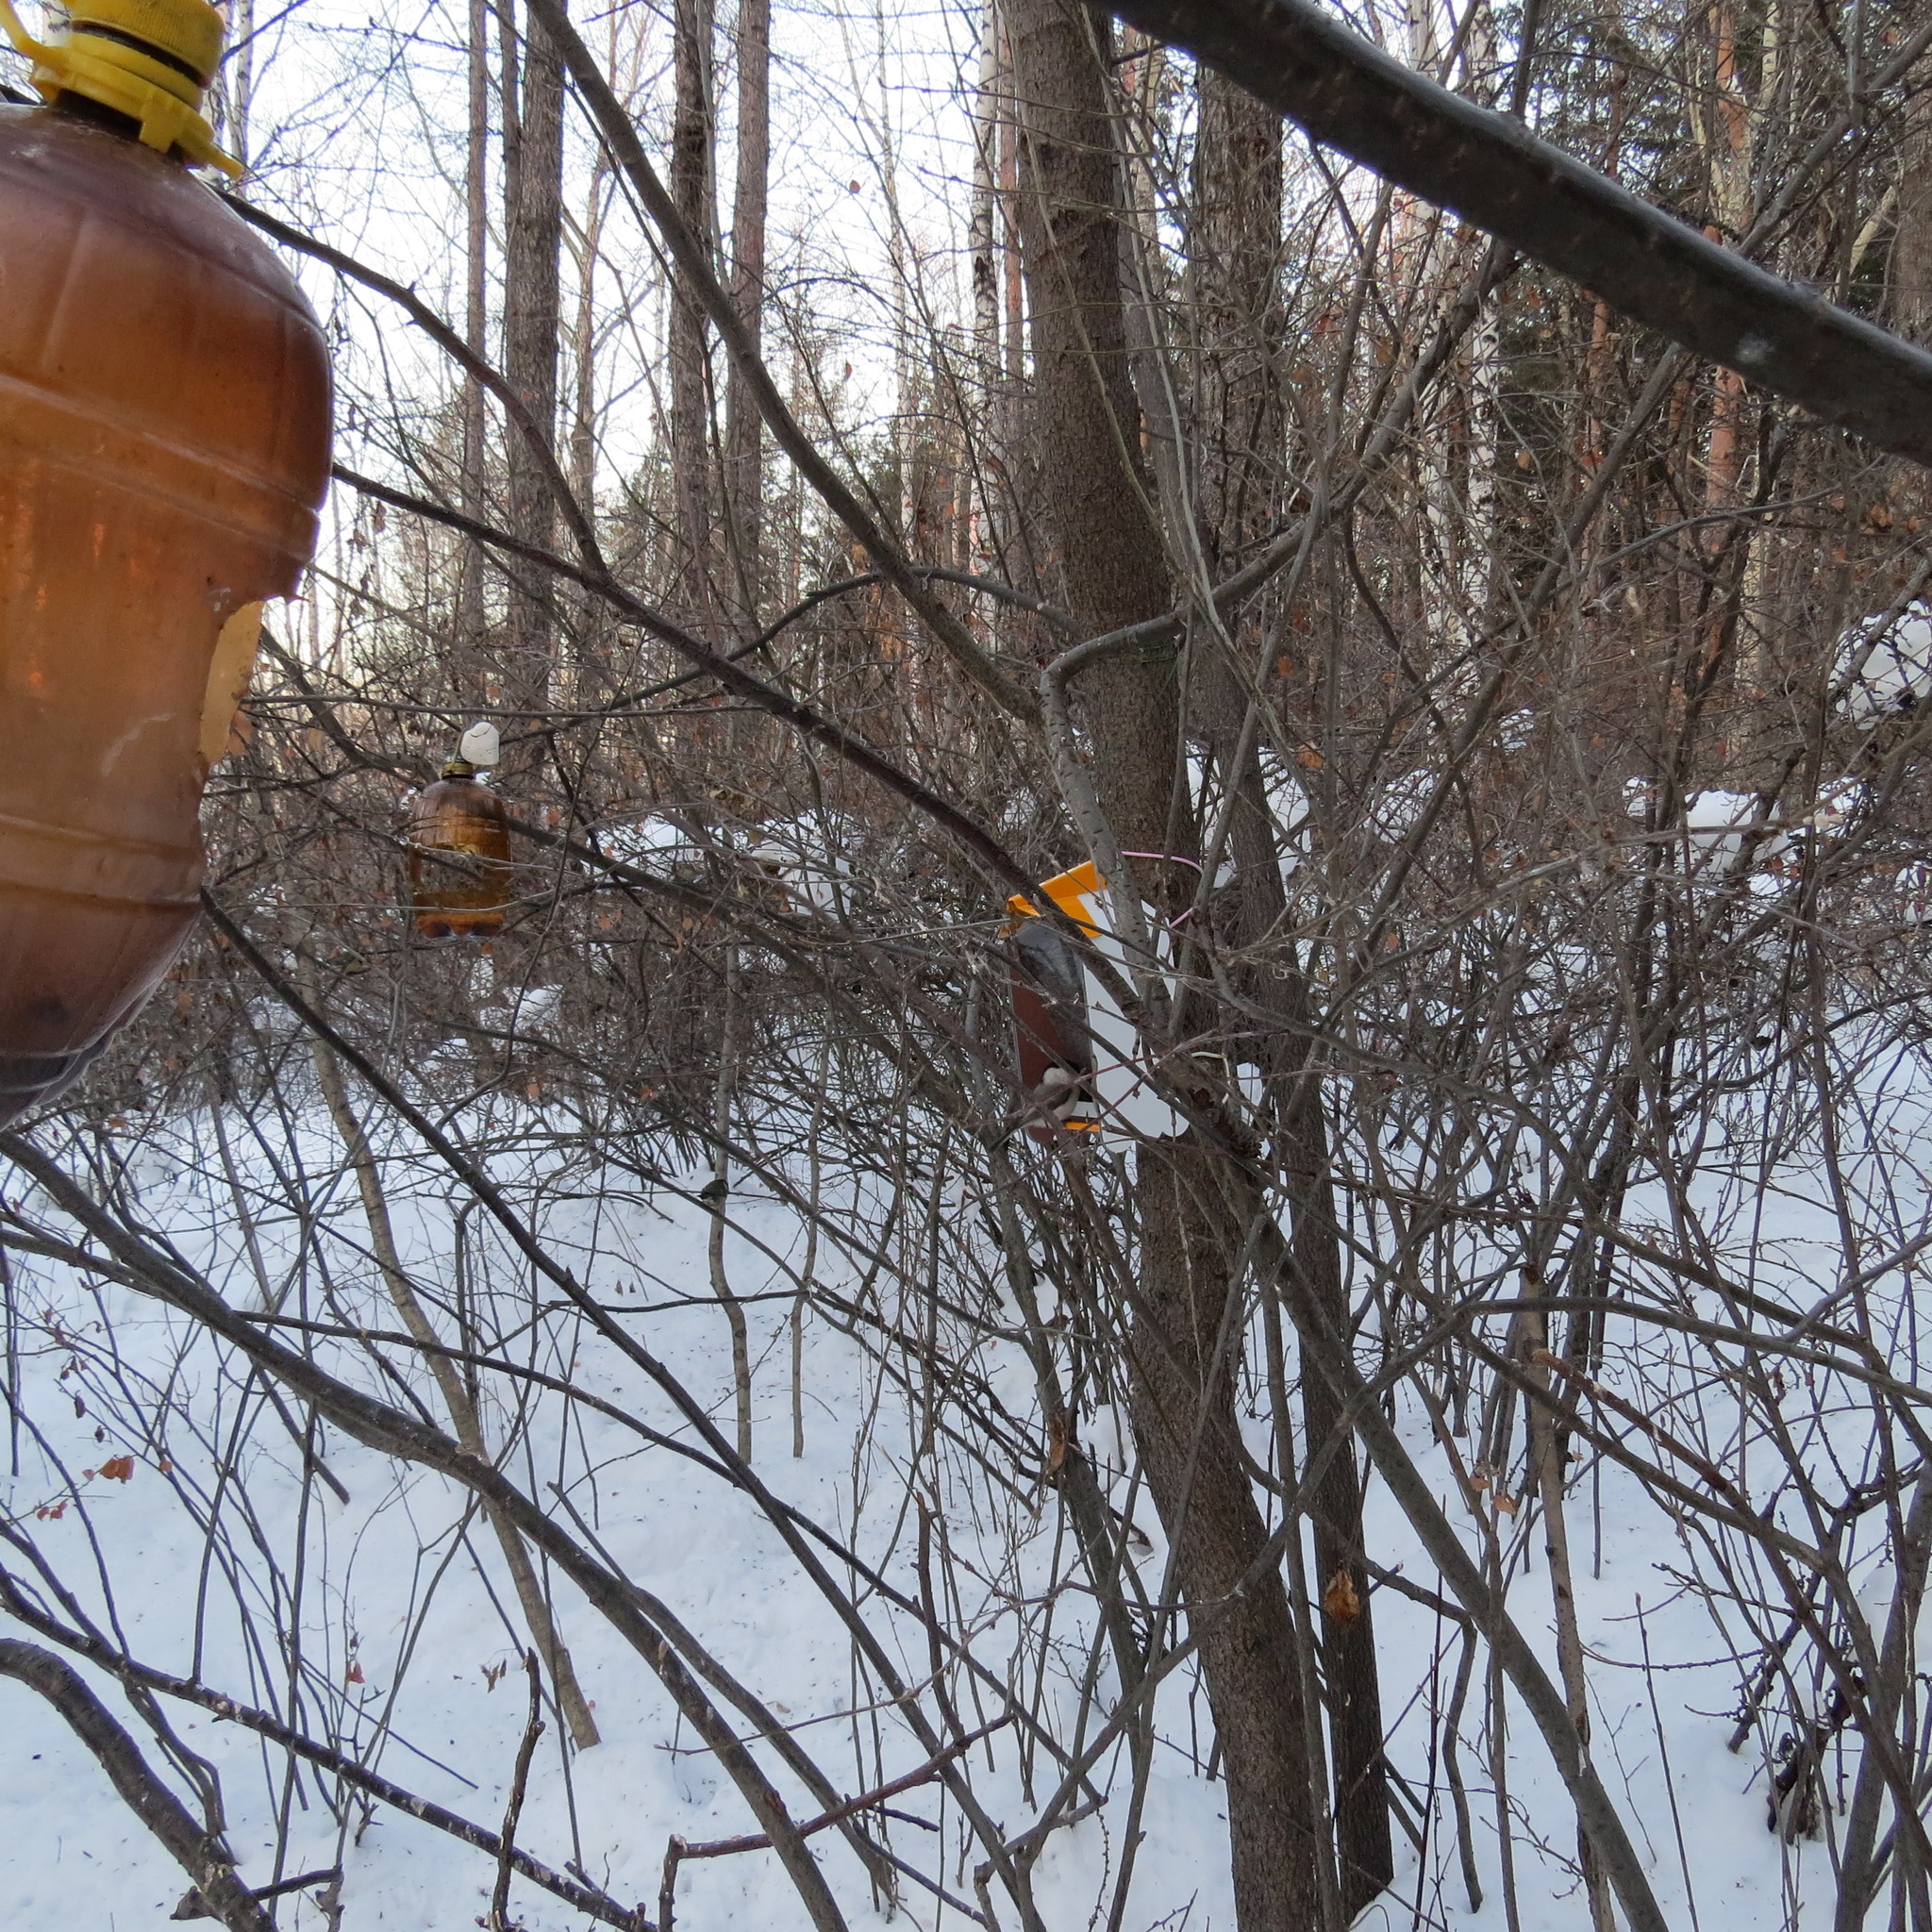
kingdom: Animalia
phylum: Chordata
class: Aves
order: Passeriformes
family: Paridae
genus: Poecile
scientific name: Poecile montanus
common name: Willow tit
